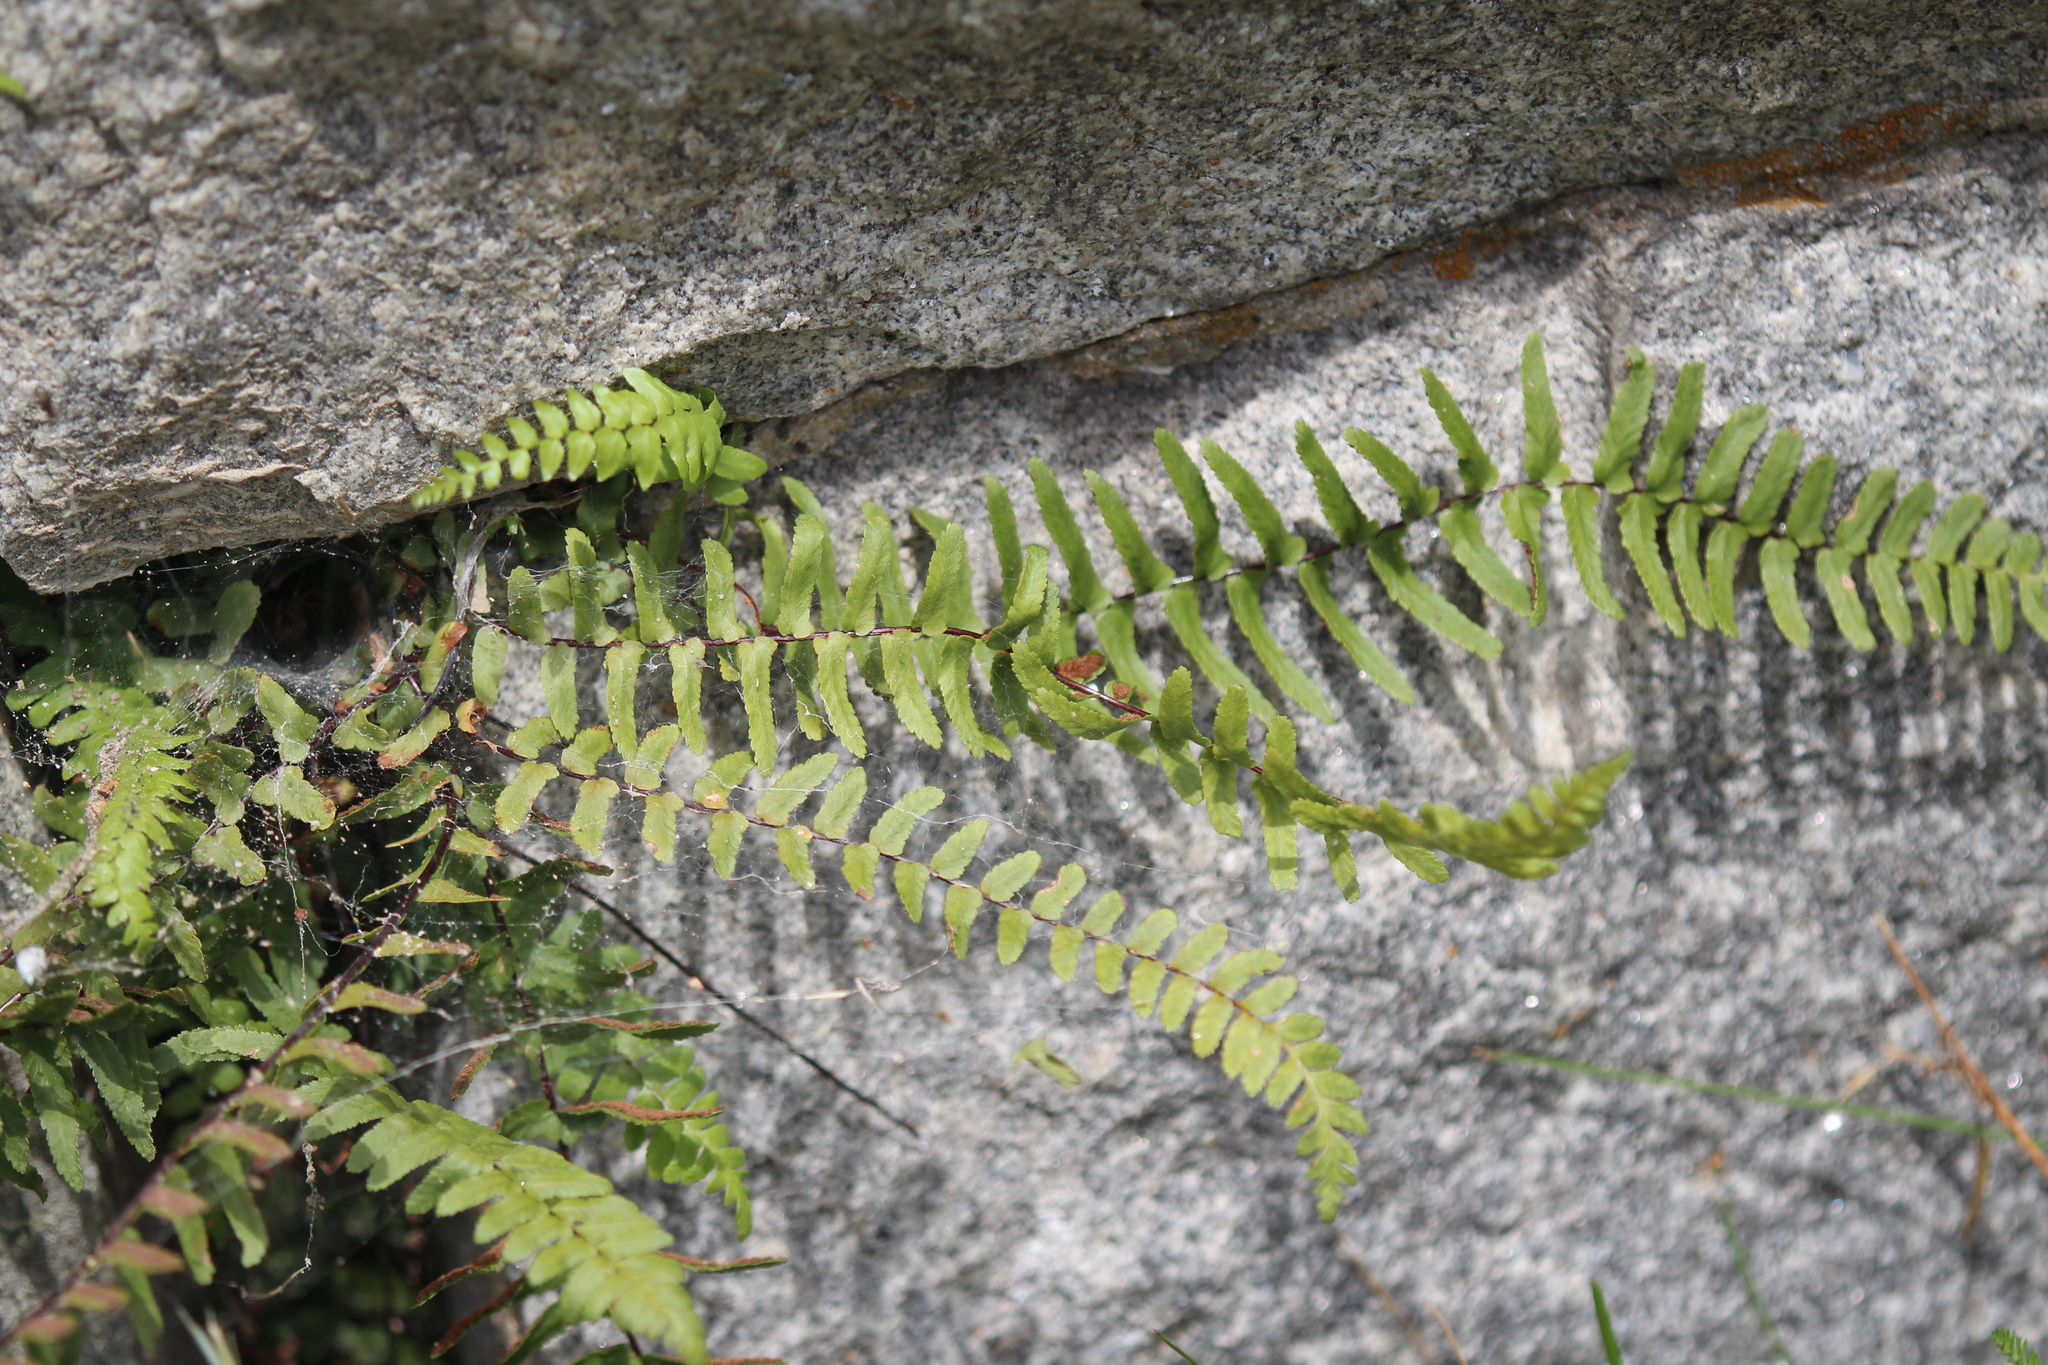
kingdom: Plantae
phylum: Tracheophyta
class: Polypodiopsida
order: Polypodiales
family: Aspleniaceae
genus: Asplenium
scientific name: Asplenium platyneuron
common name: Ebony spleenwort
